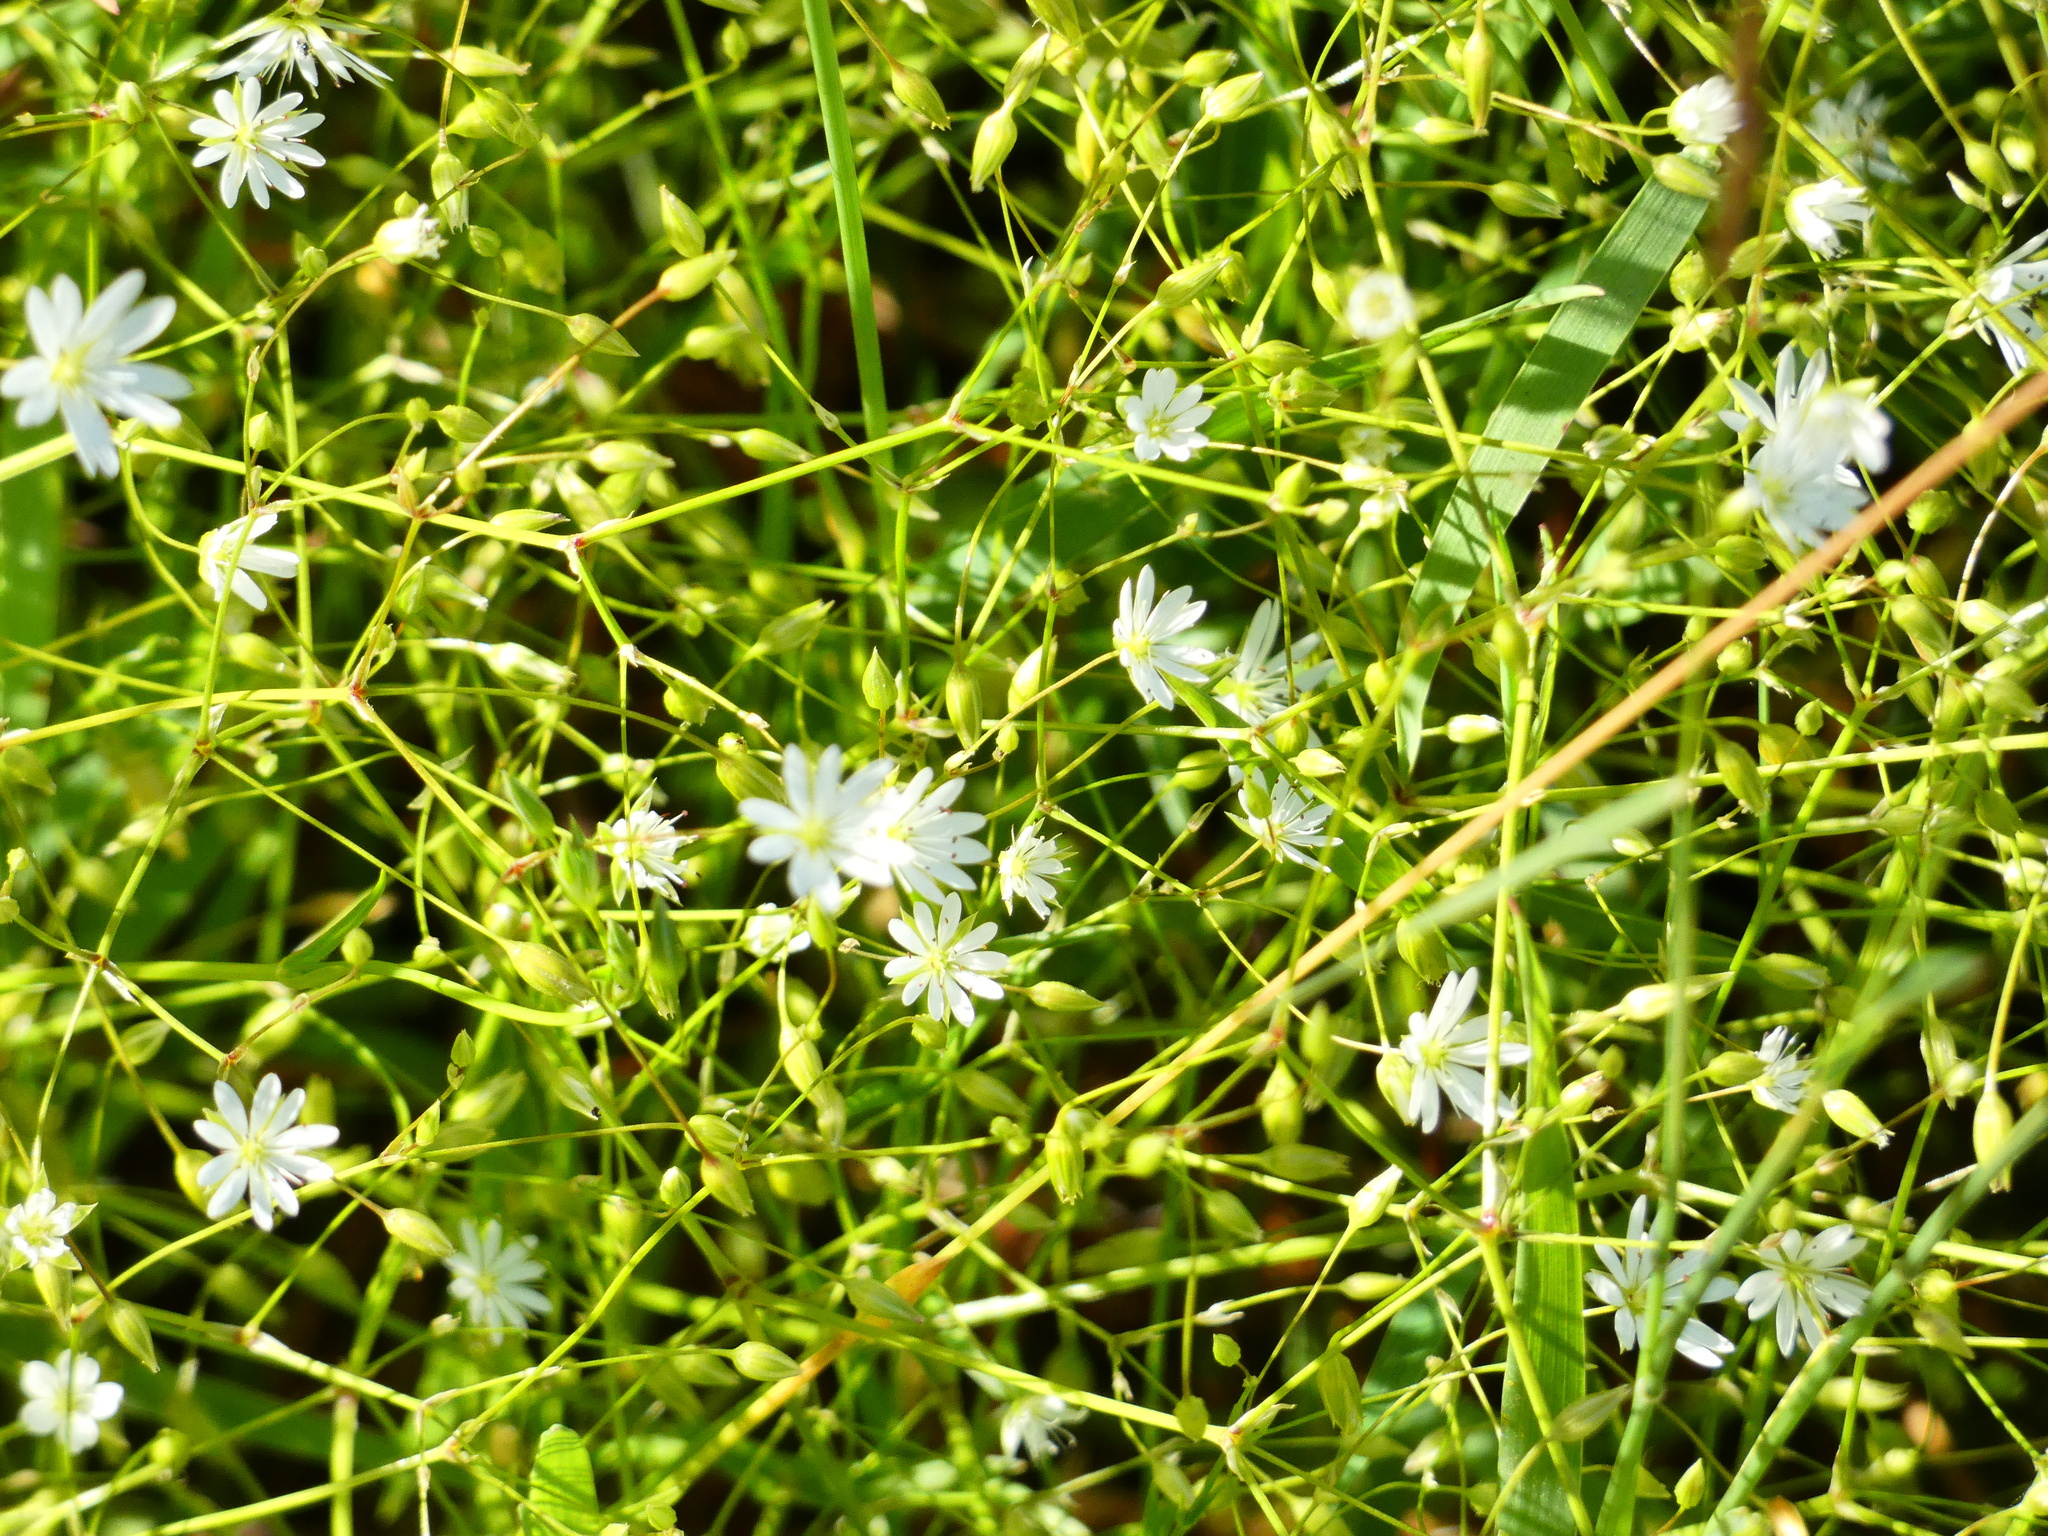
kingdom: Plantae
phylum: Tracheophyta
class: Magnoliopsida
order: Caryophyllales
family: Caryophyllaceae
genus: Stellaria
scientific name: Stellaria graminea
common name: Grass-like starwort
